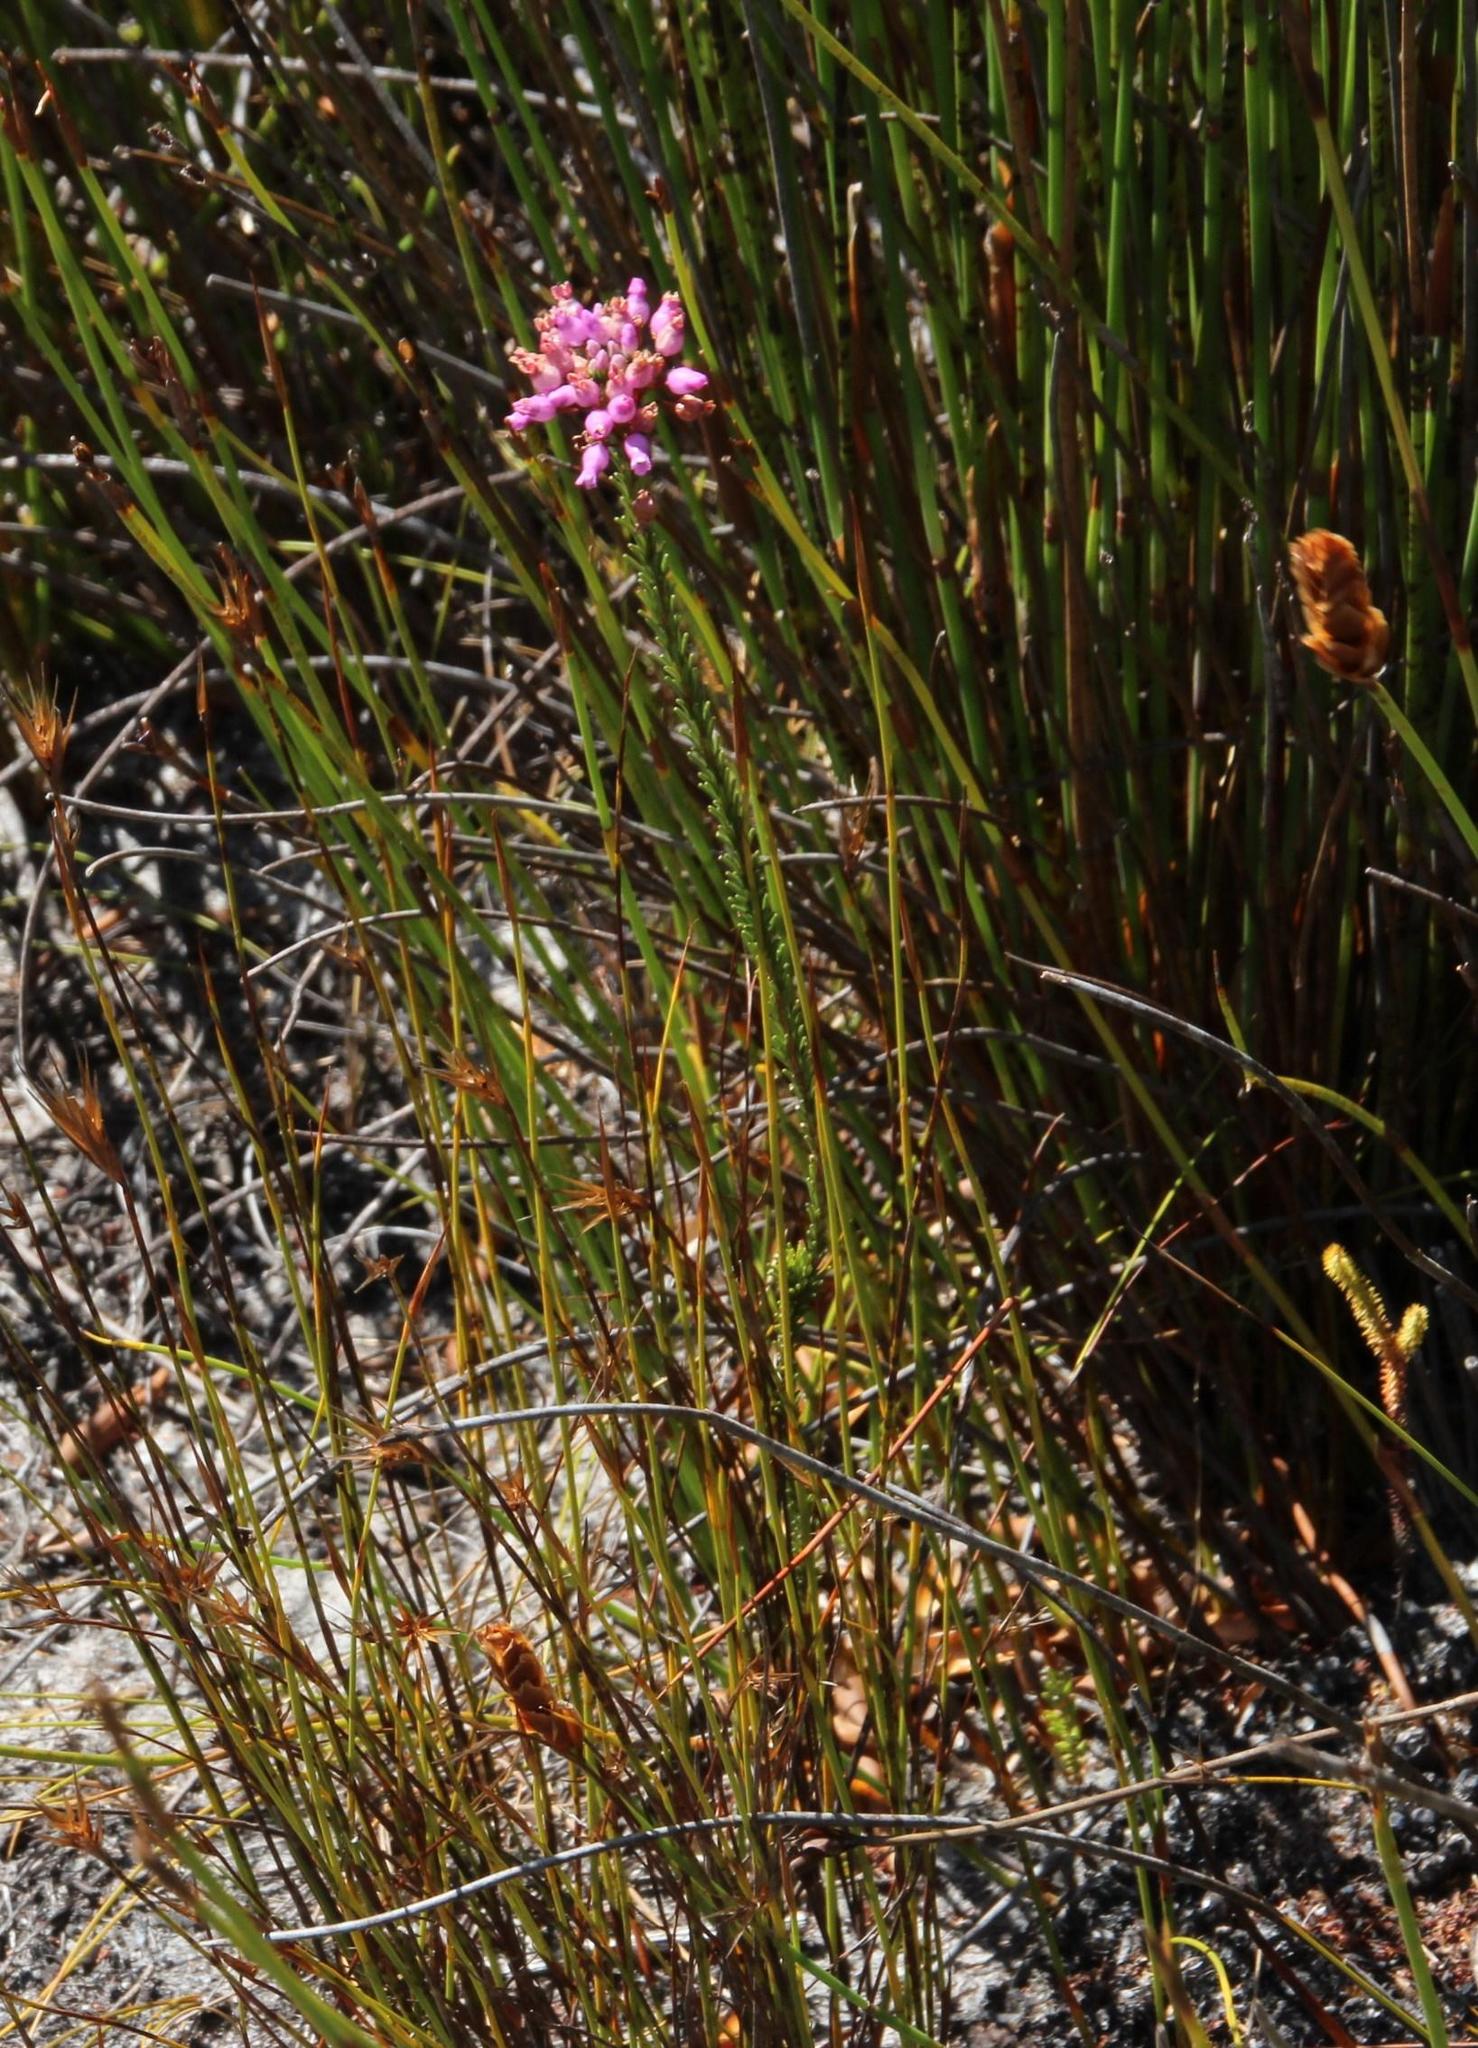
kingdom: Plantae
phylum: Tracheophyta
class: Magnoliopsida
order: Ericales
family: Ericaceae
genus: Erica
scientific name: Erica obliqua
